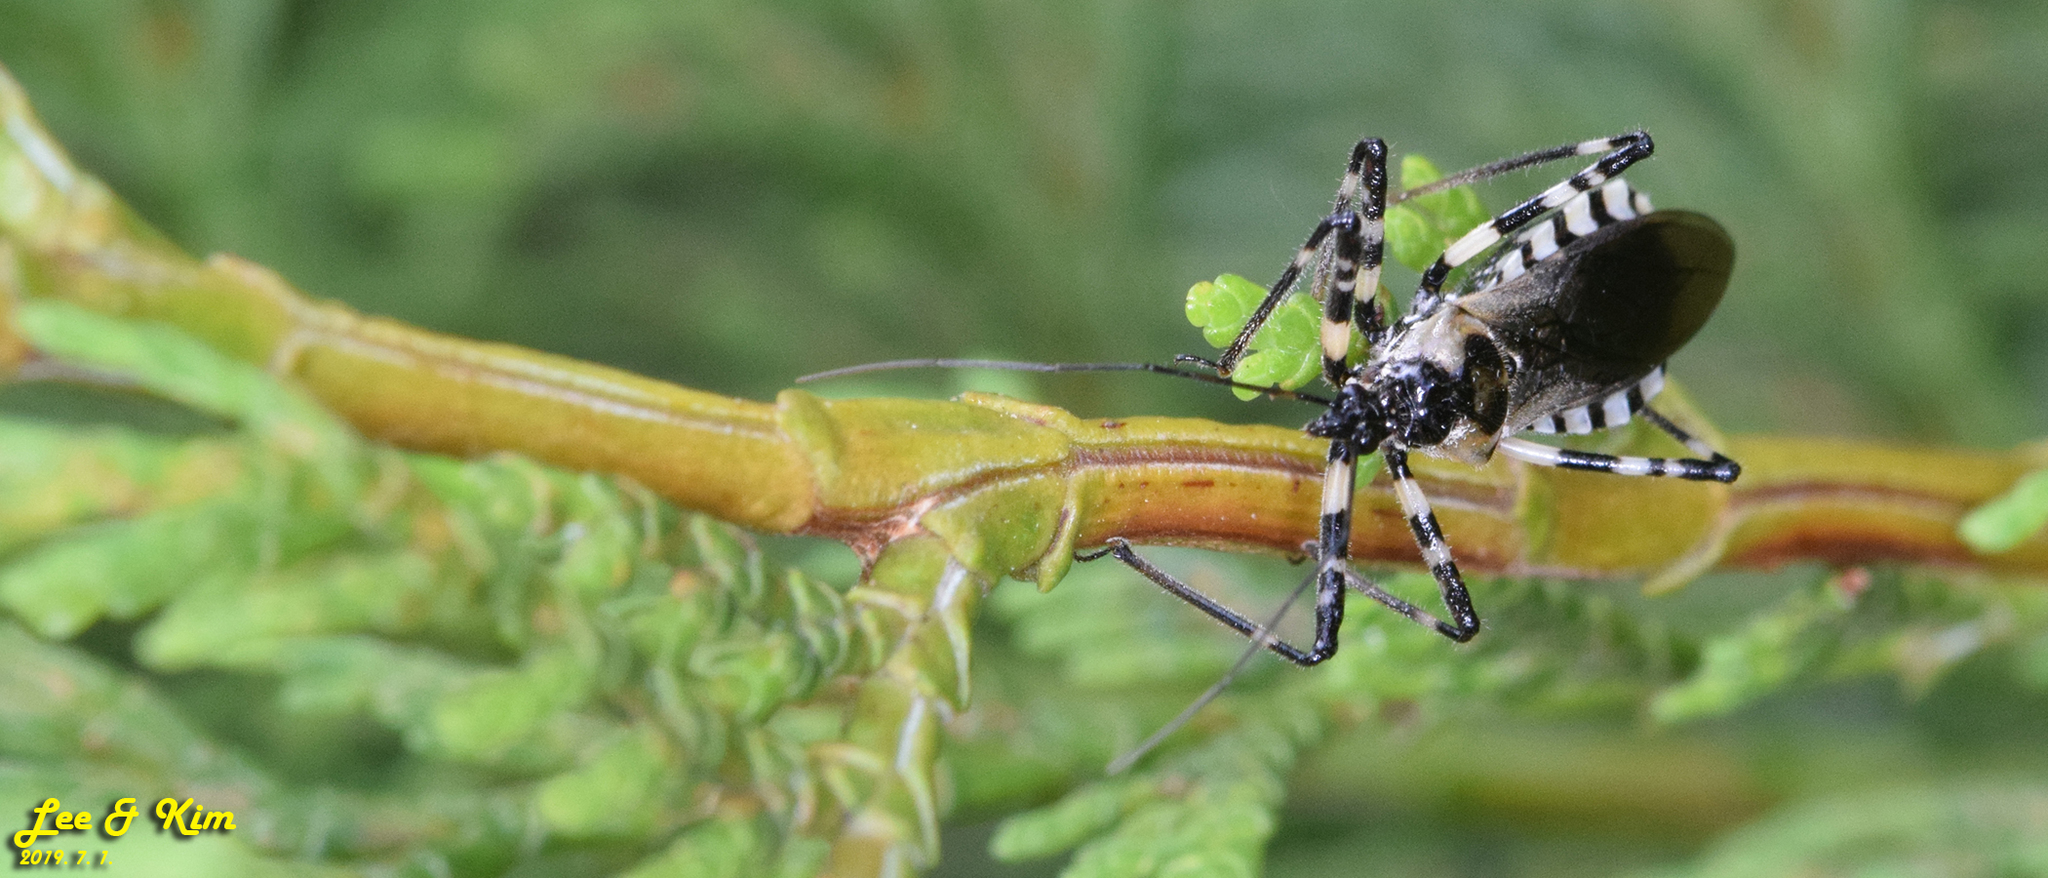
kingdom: Animalia
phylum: Arthropoda
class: Insecta
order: Hemiptera
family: Reduviidae
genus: Sphedanolestes
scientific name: Sphedanolestes impressicollis
